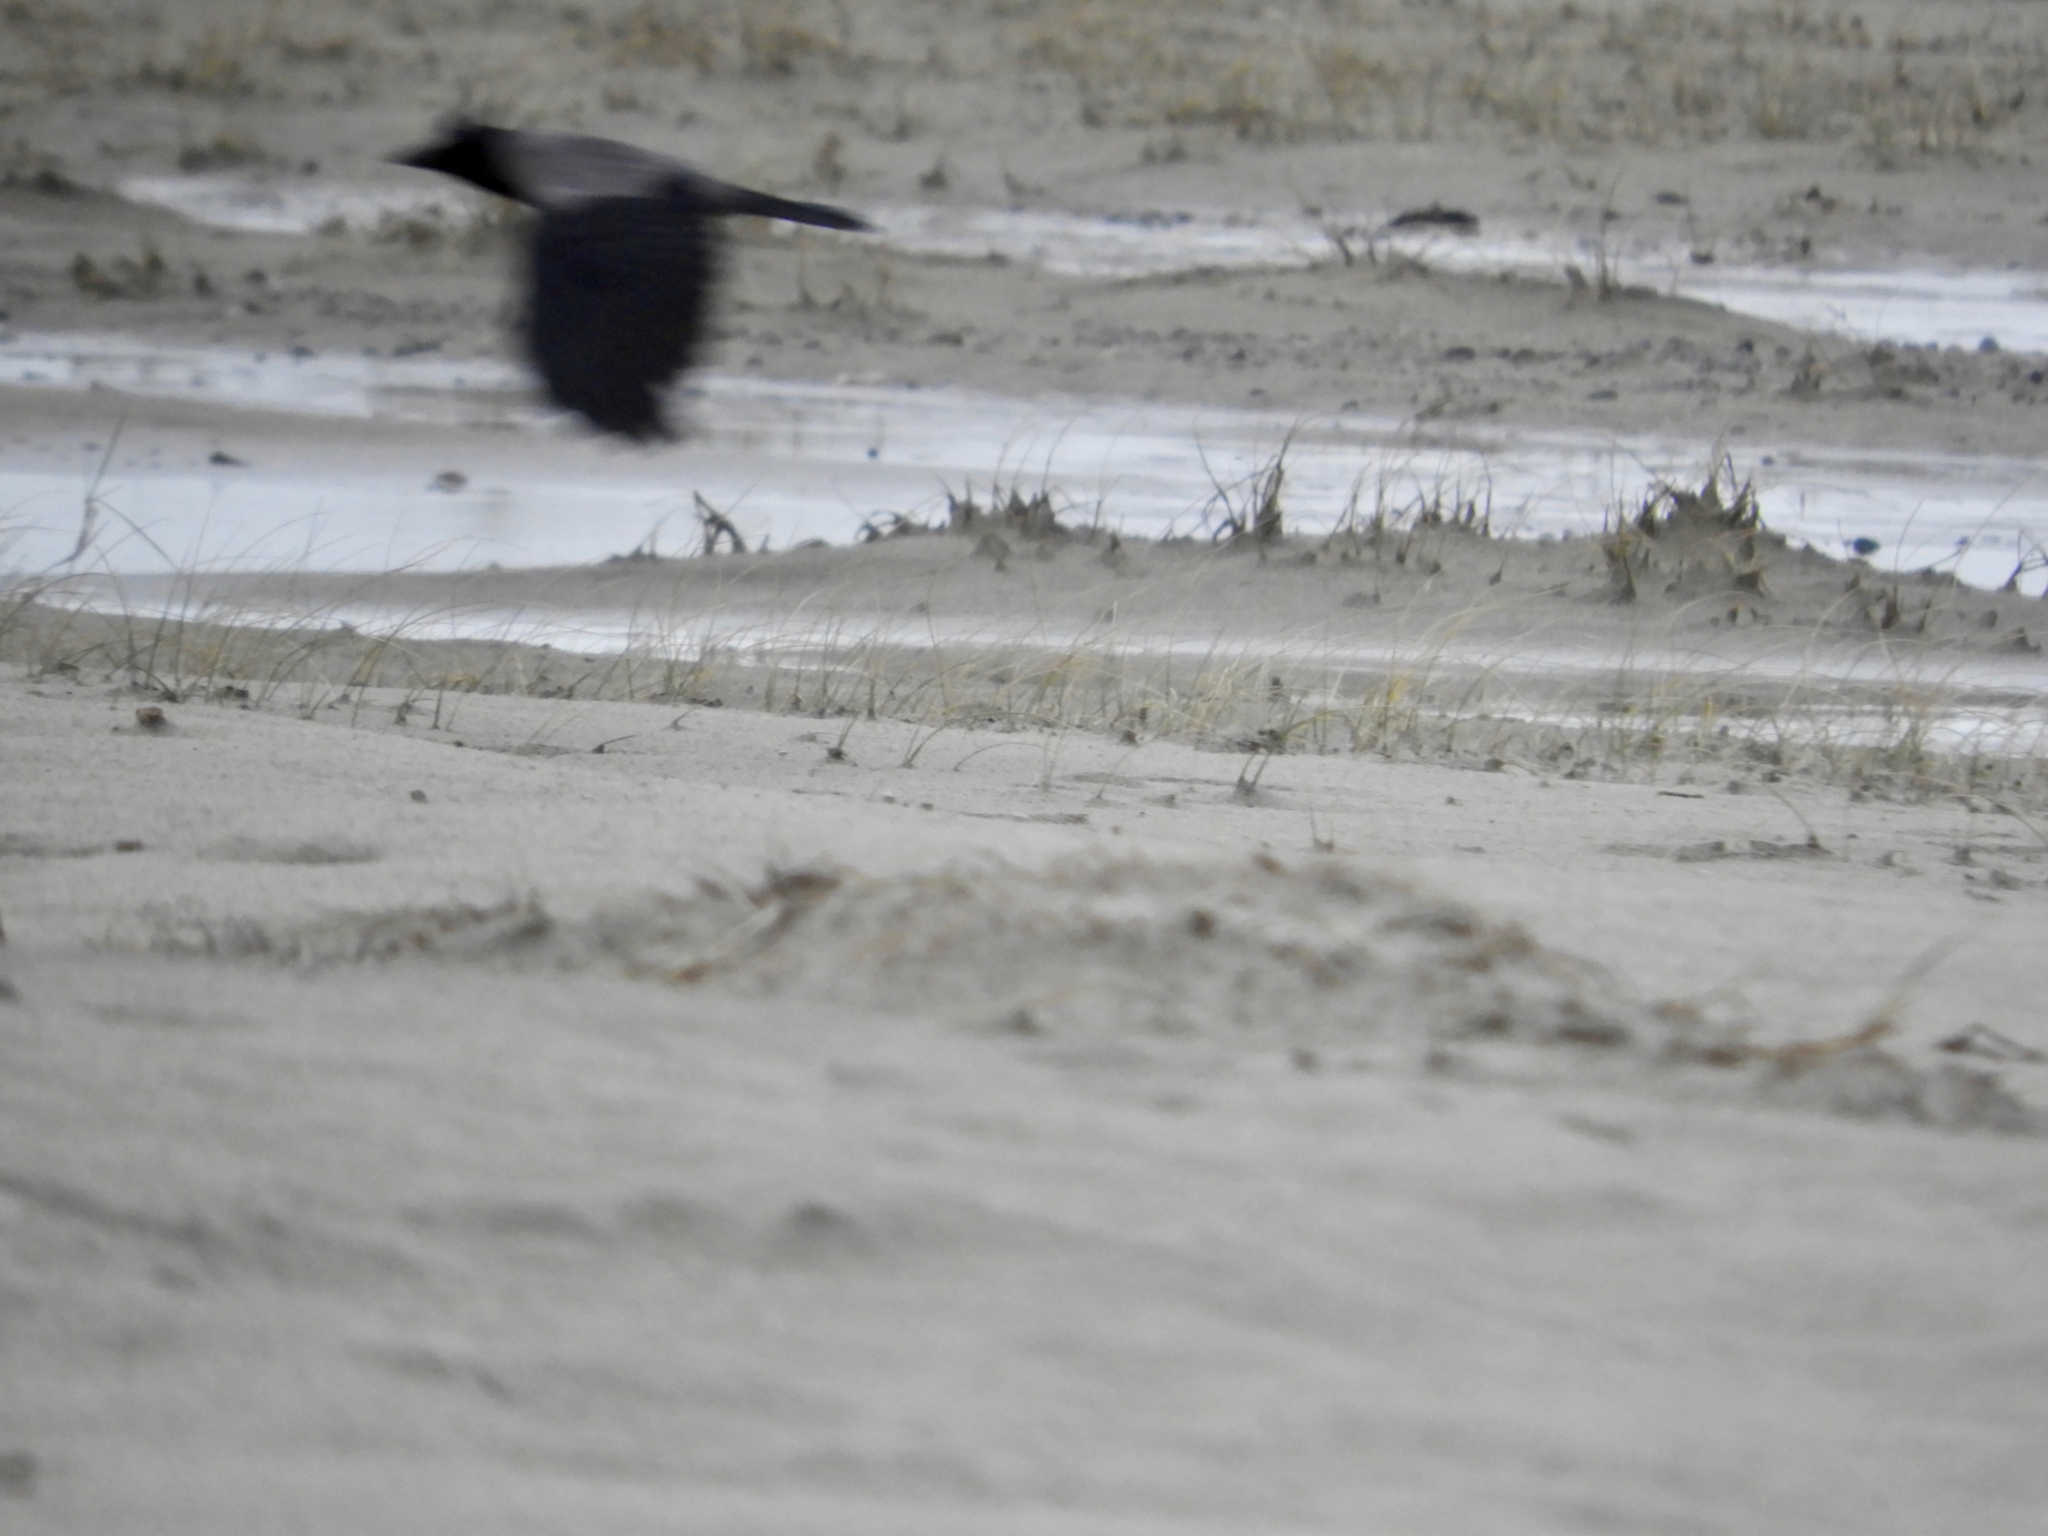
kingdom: Animalia
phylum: Chordata
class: Aves
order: Passeriformes
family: Corvidae
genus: Corvus
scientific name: Corvus cornix
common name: Hooded crow
